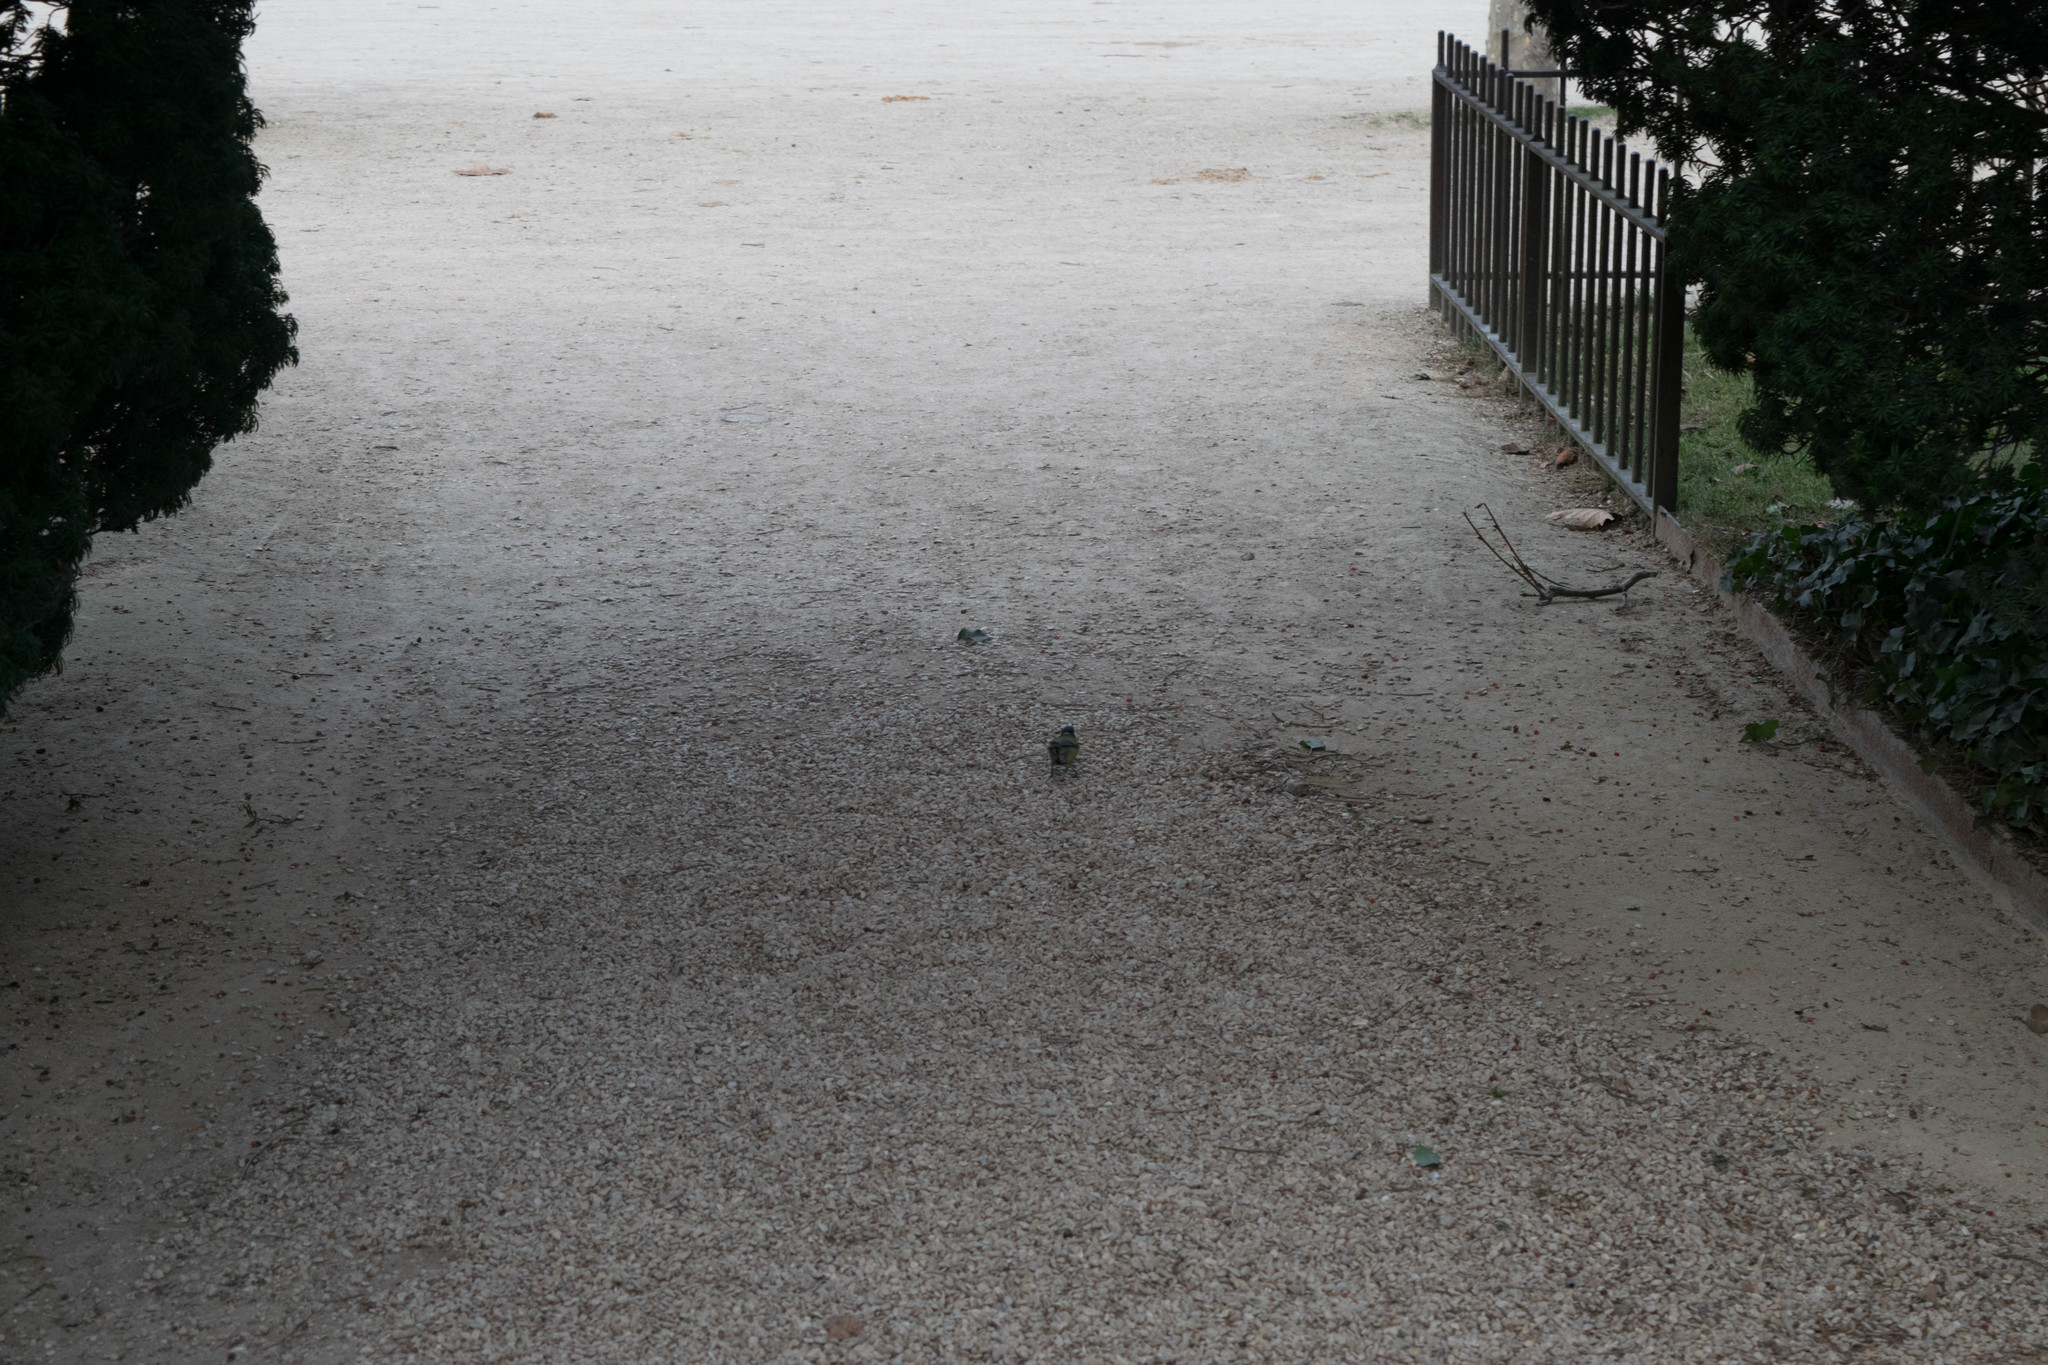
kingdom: Animalia
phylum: Chordata
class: Aves
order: Passeriformes
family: Paridae
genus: Parus
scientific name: Parus major
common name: Great tit
